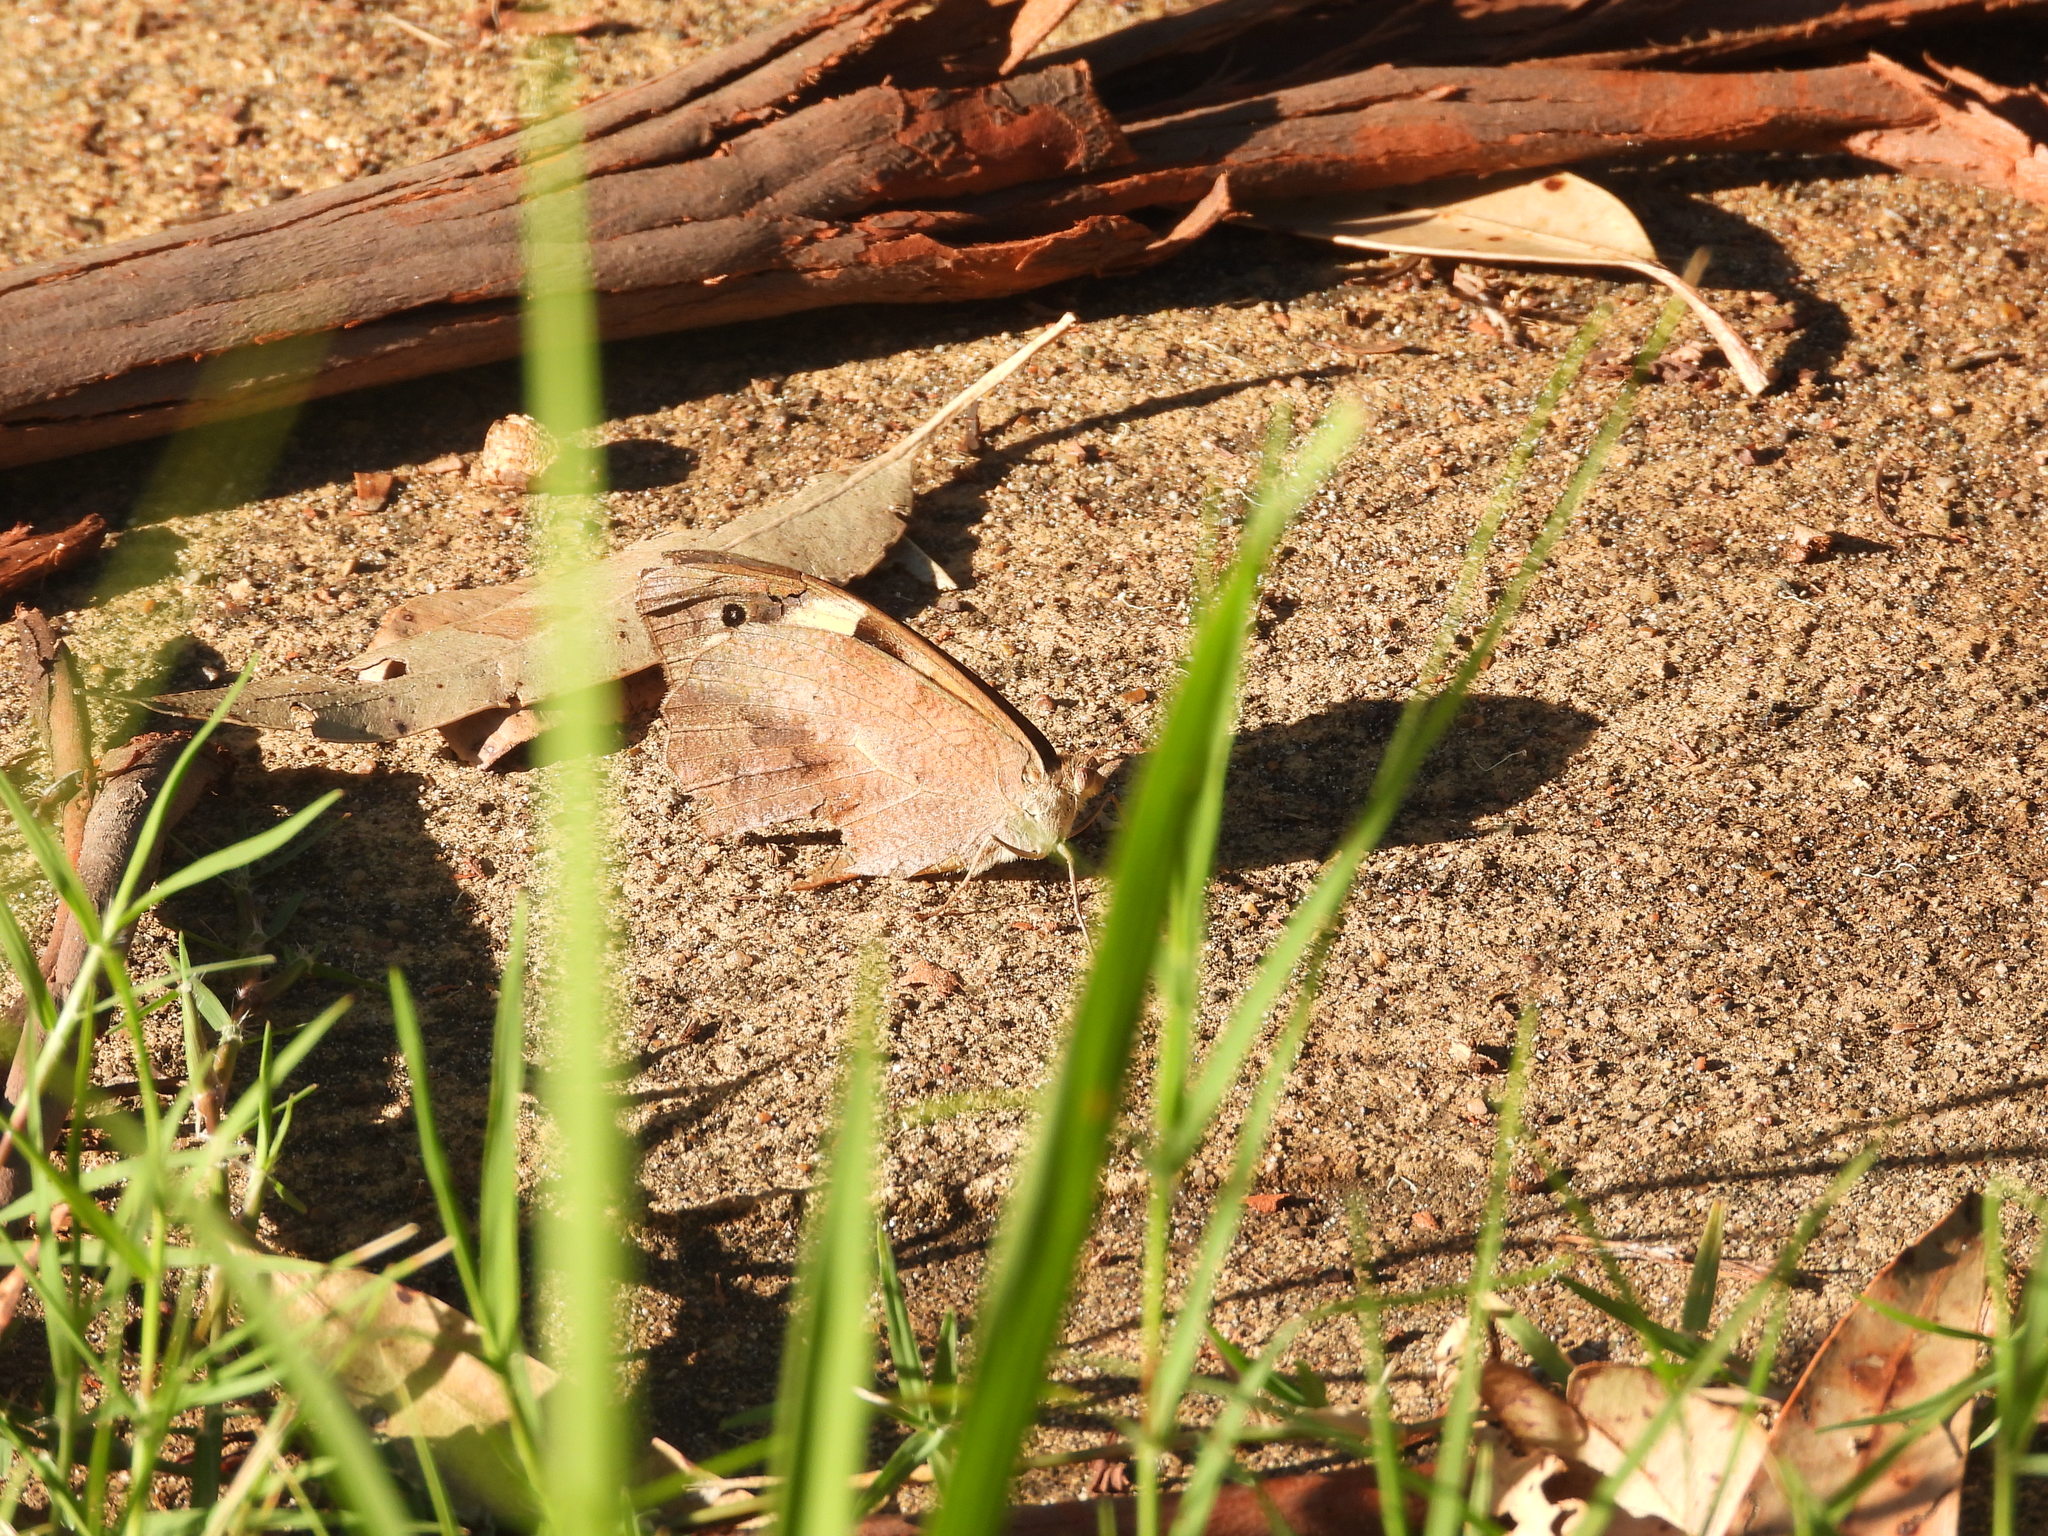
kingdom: Animalia
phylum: Arthropoda
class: Insecta
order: Lepidoptera
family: Nymphalidae
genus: Heteronympha
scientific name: Heteronympha merope
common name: Common brown
